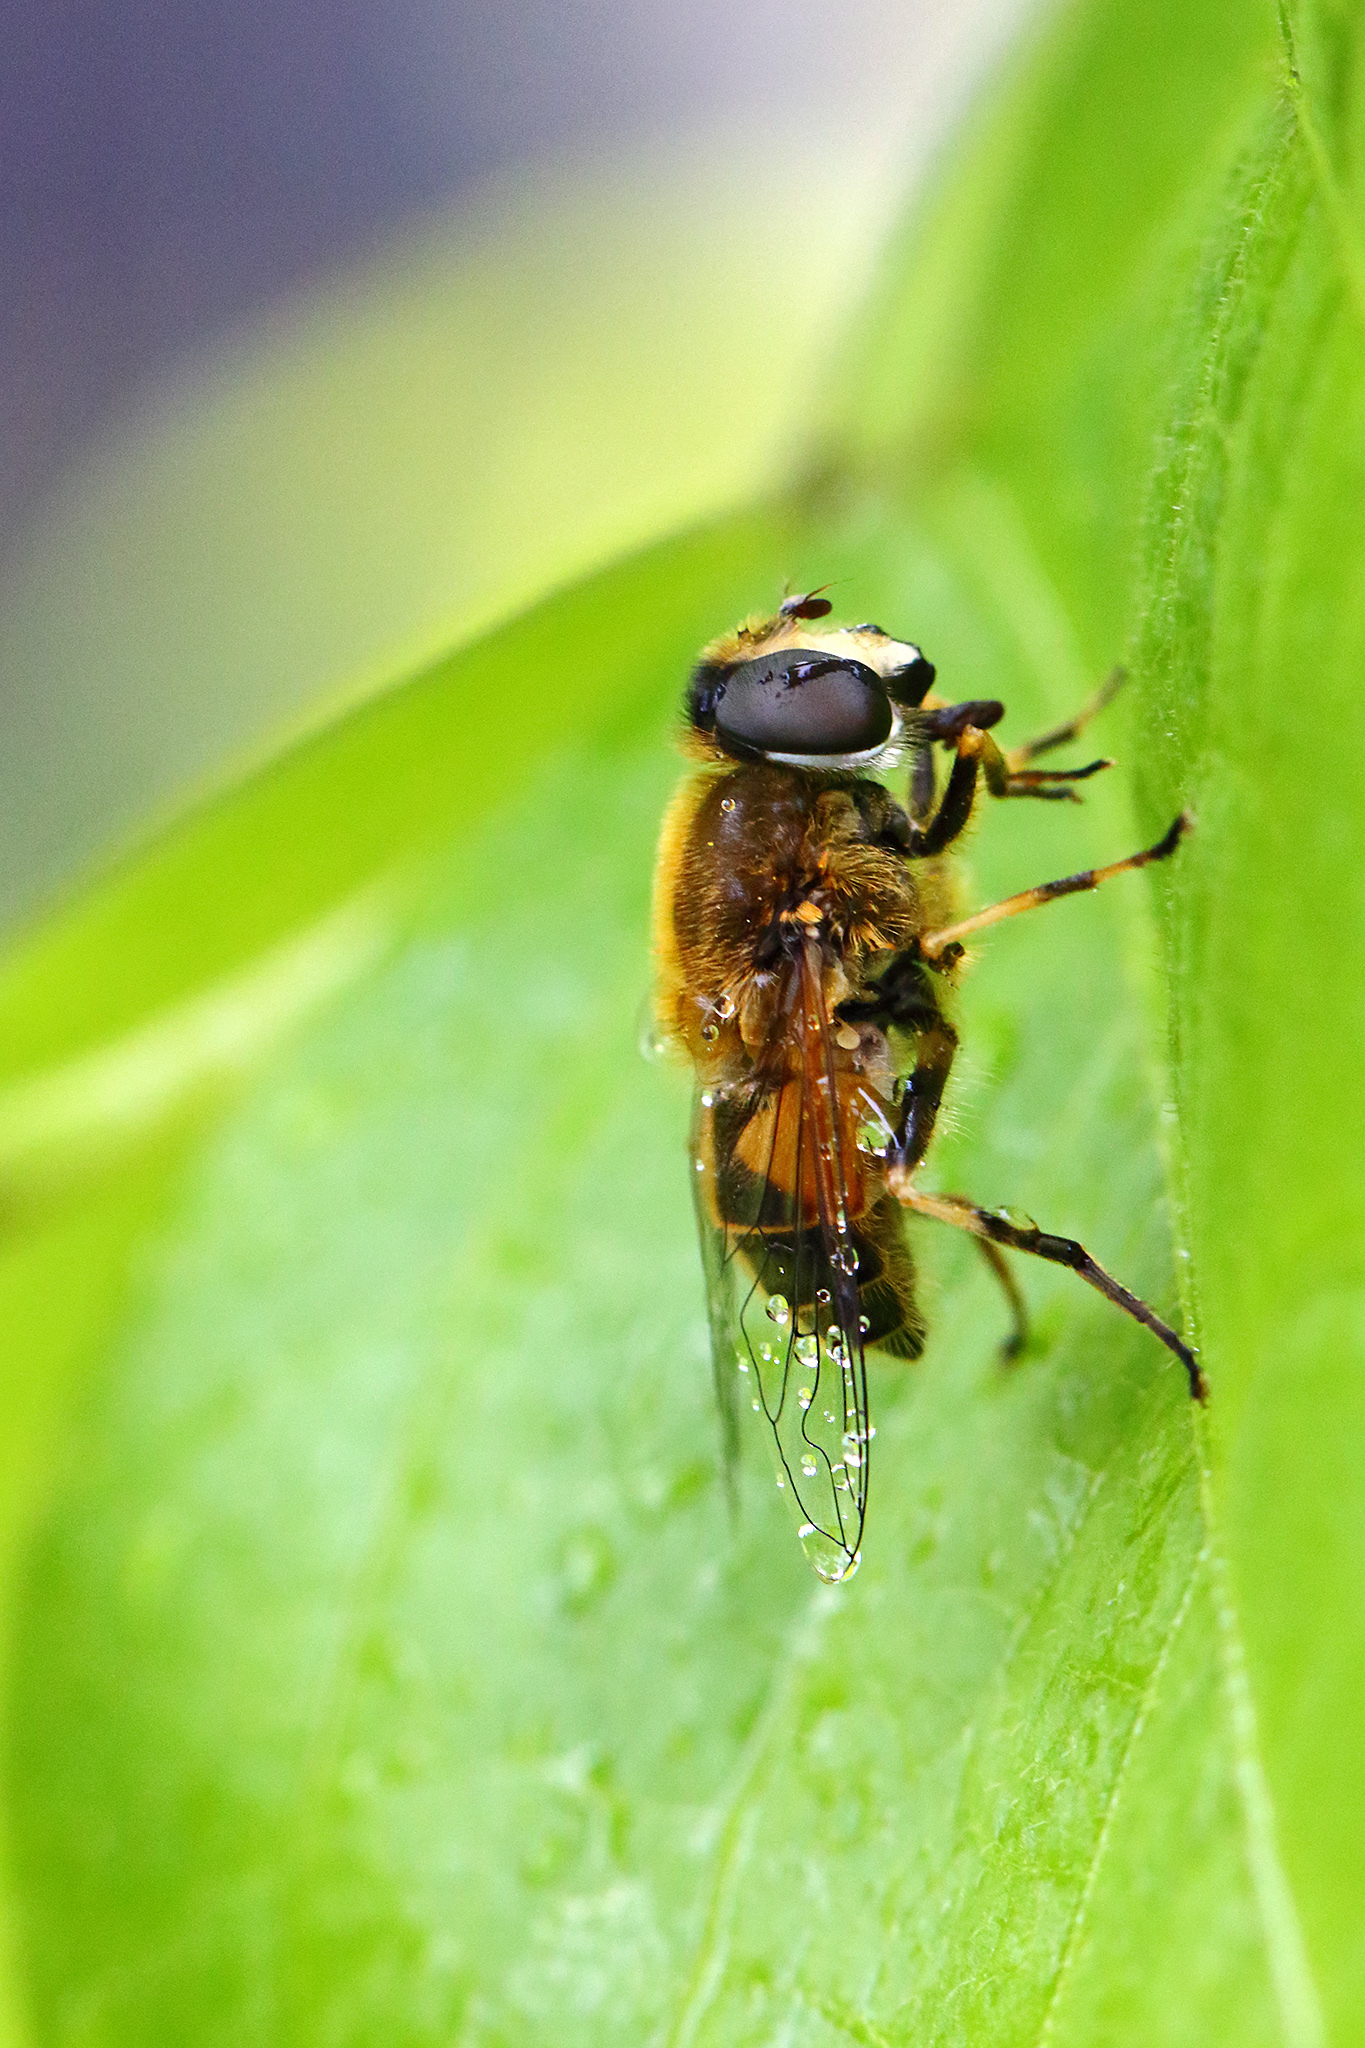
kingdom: Animalia
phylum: Arthropoda
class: Insecta
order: Diptera
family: Syrphidae
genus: Eristalis
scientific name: Eristalis arbustorum
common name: Hover fly
